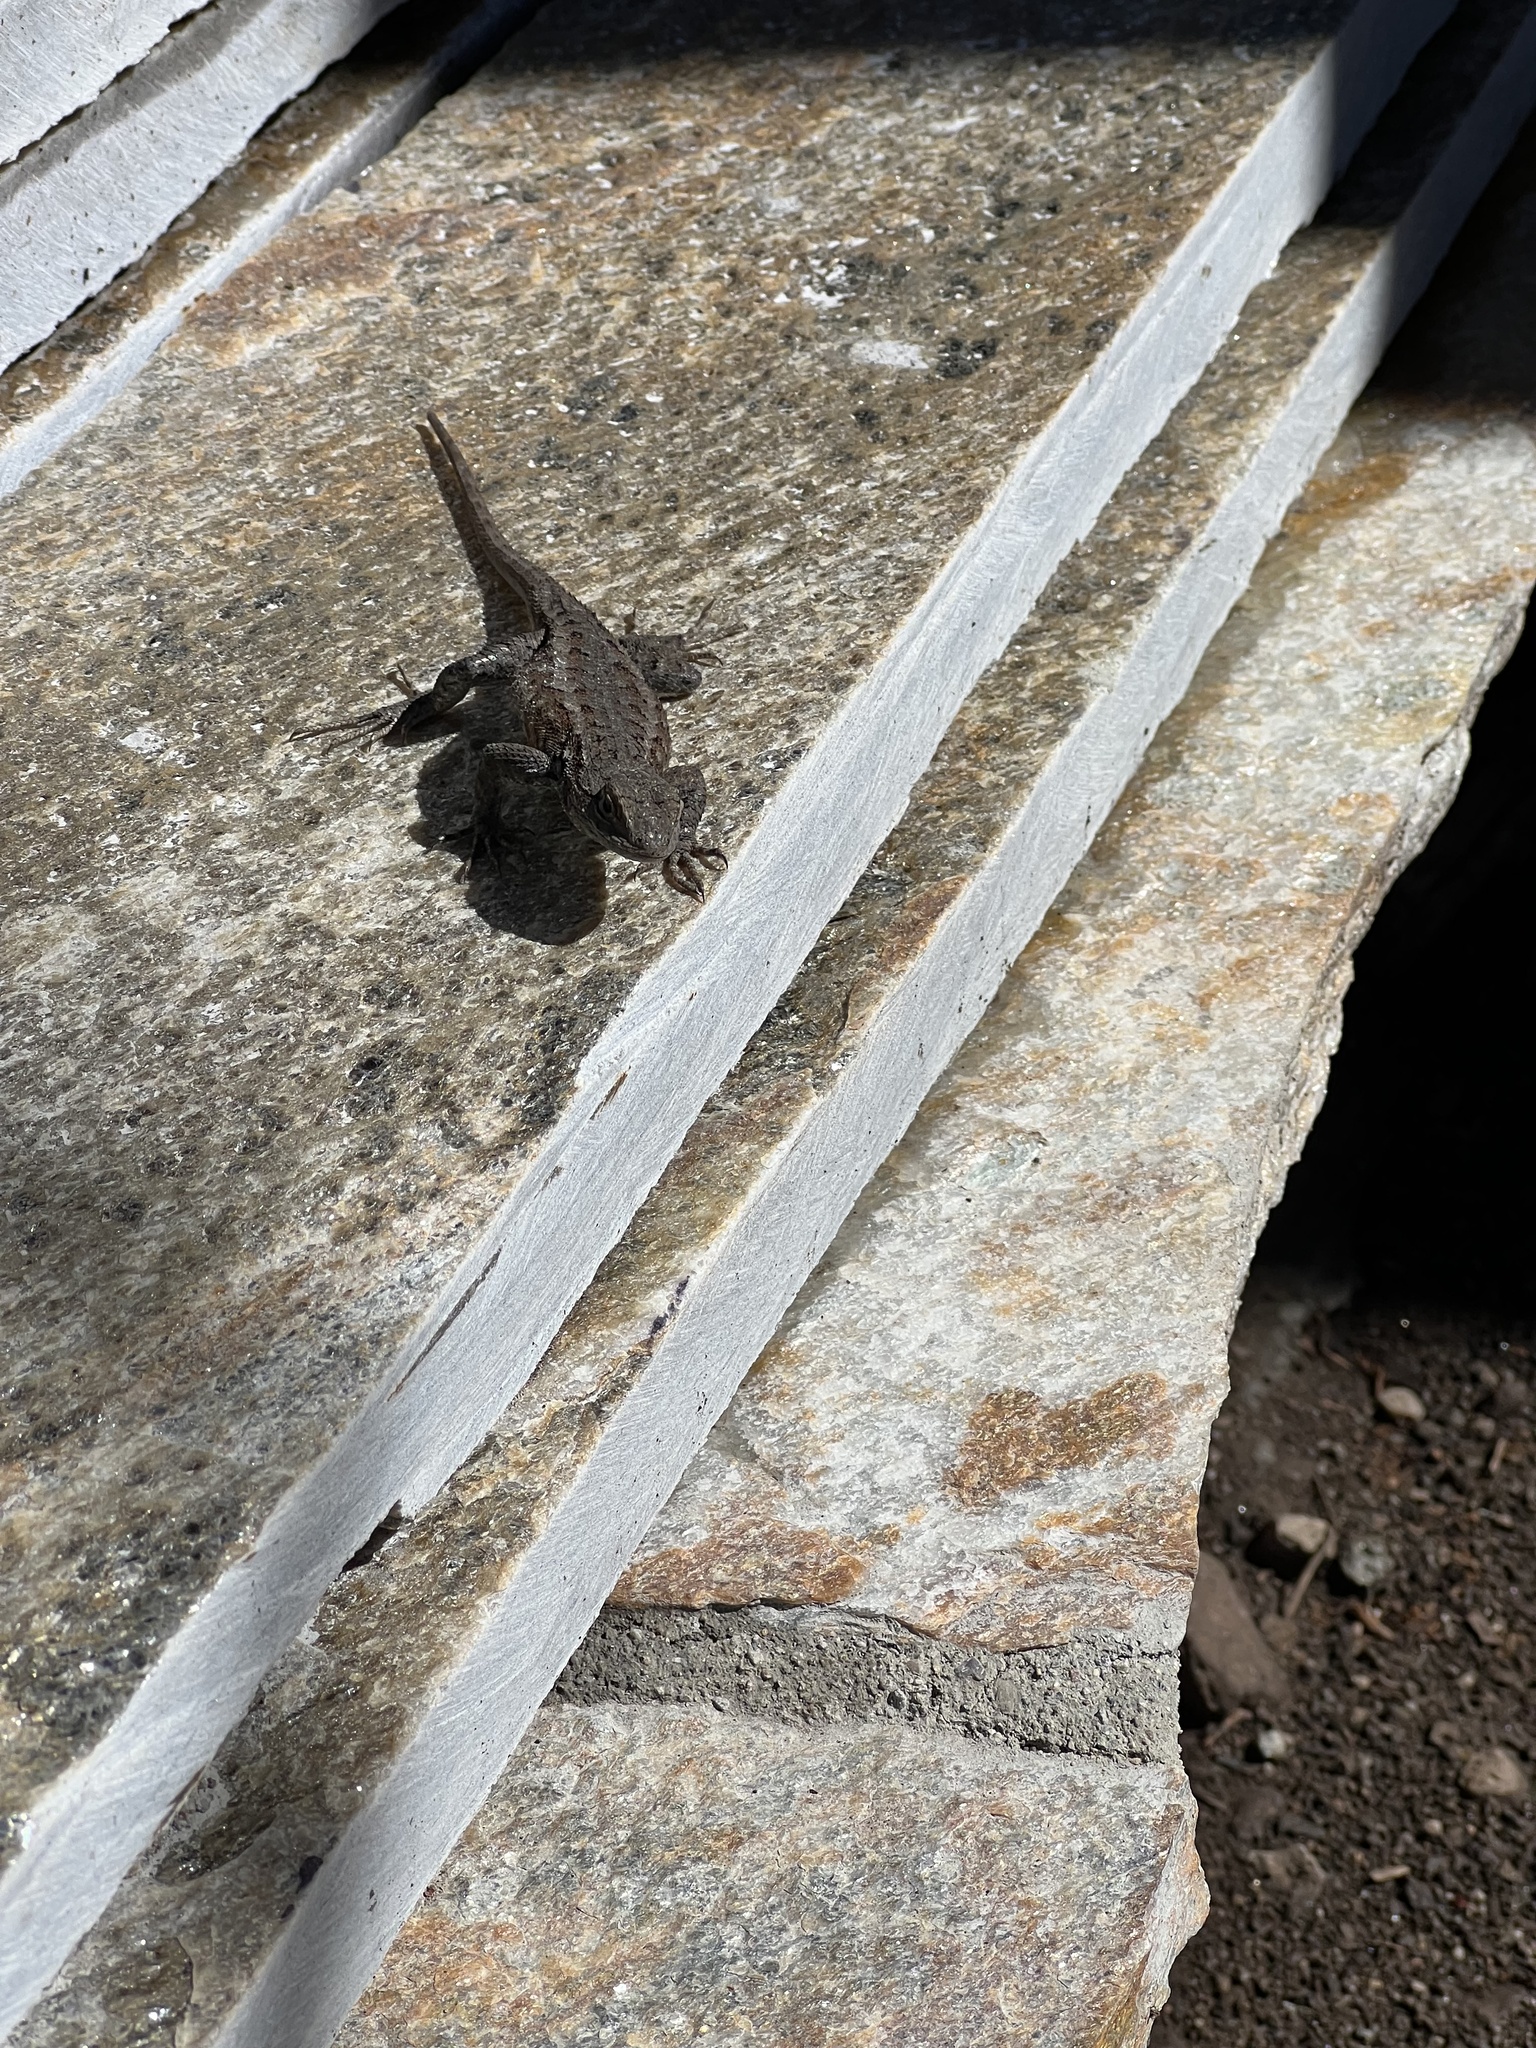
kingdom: Animalia
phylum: Chordata
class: Squamata
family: Phrynosomatidae
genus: Sceloporus
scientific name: Sceloporus occidentalis
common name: Western fence lizard
